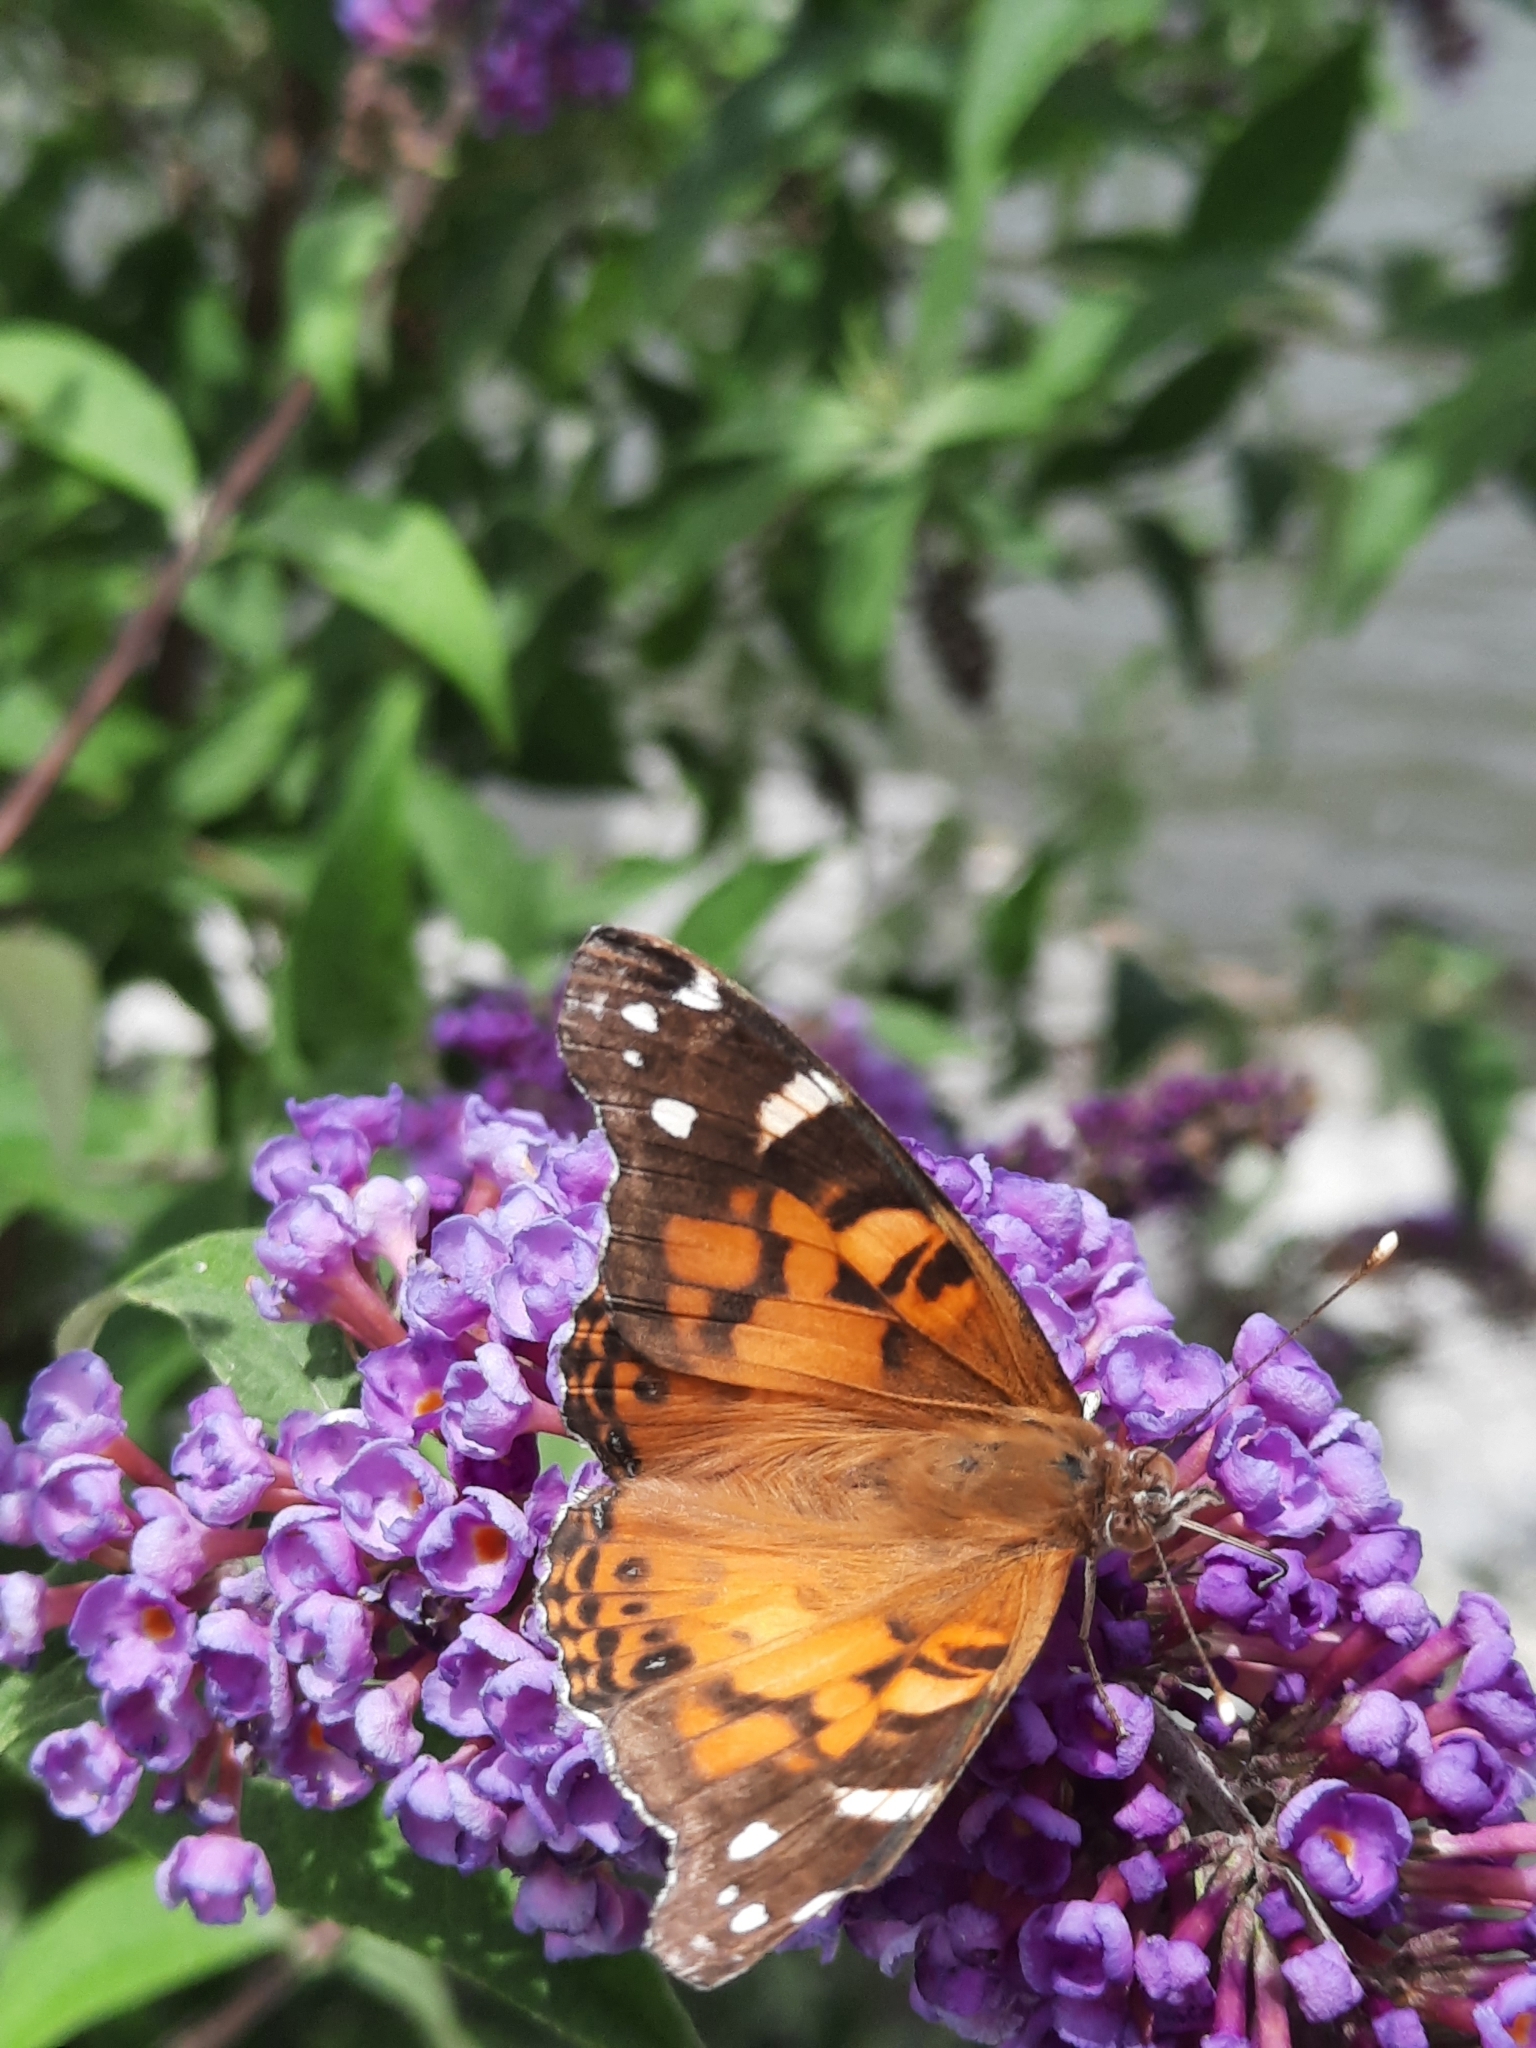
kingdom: Animalia
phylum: Arthropoda
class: Insecta
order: Lepidoptera
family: Nymphalidae
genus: Vanessa
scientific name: Vanessa virginiensis
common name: American lady
